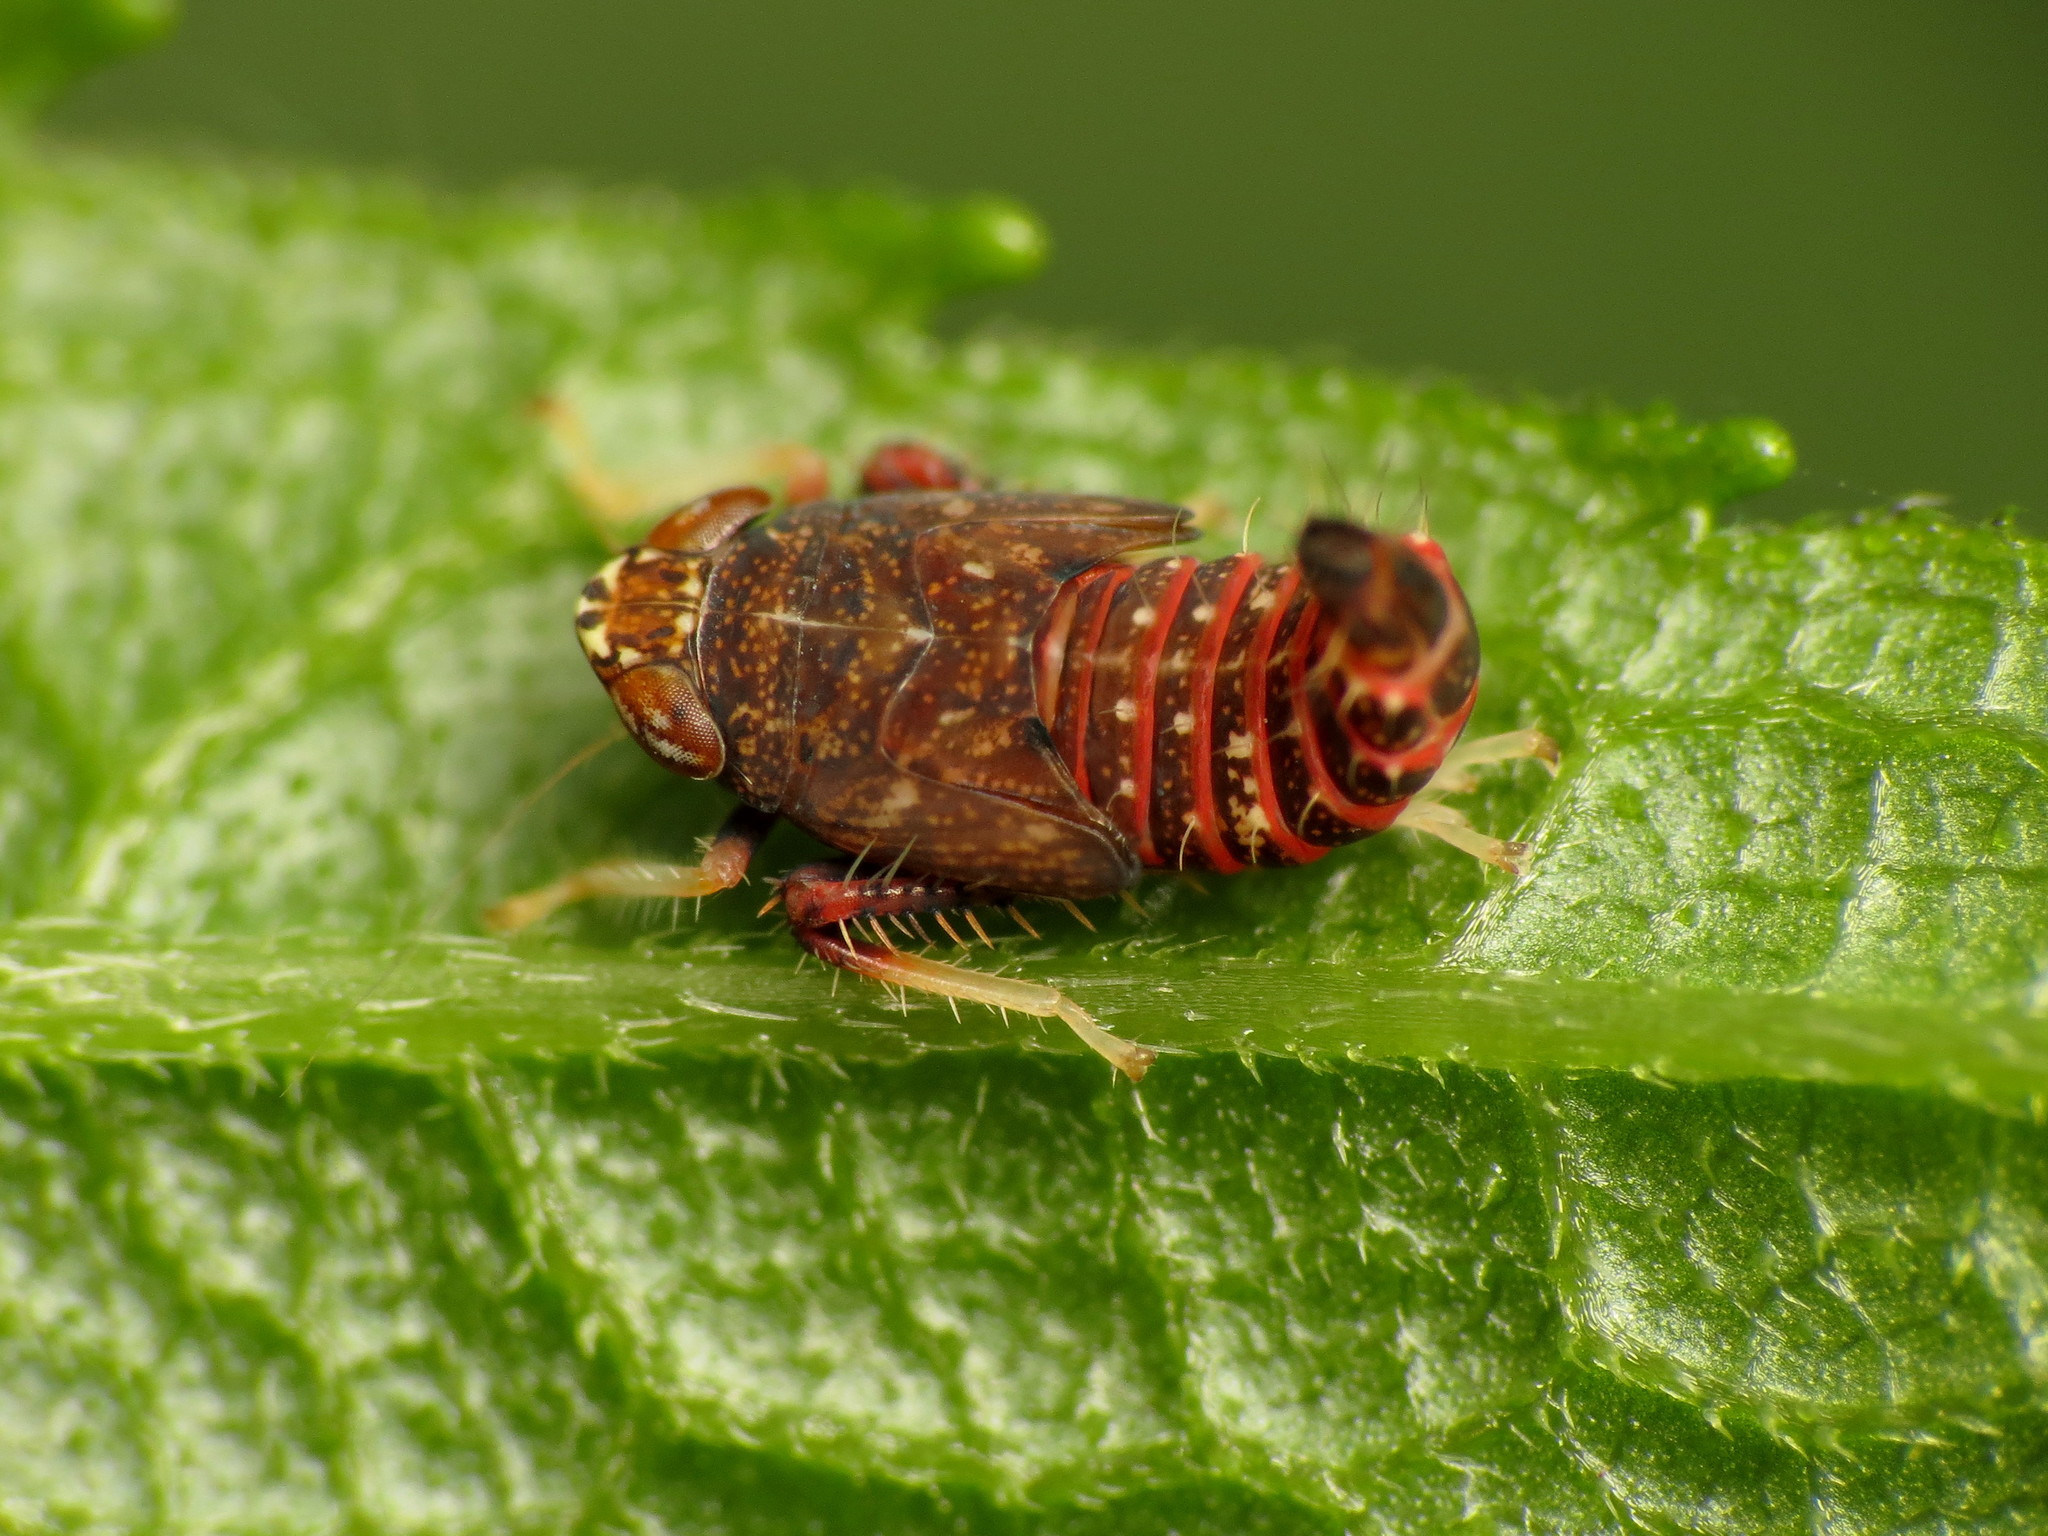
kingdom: Animalia
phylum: Arthropoda
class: Insecta
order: Hemiptera
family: Cicadellidae
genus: Orientus
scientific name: Orientus ishidae
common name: Japanese leafhopper
